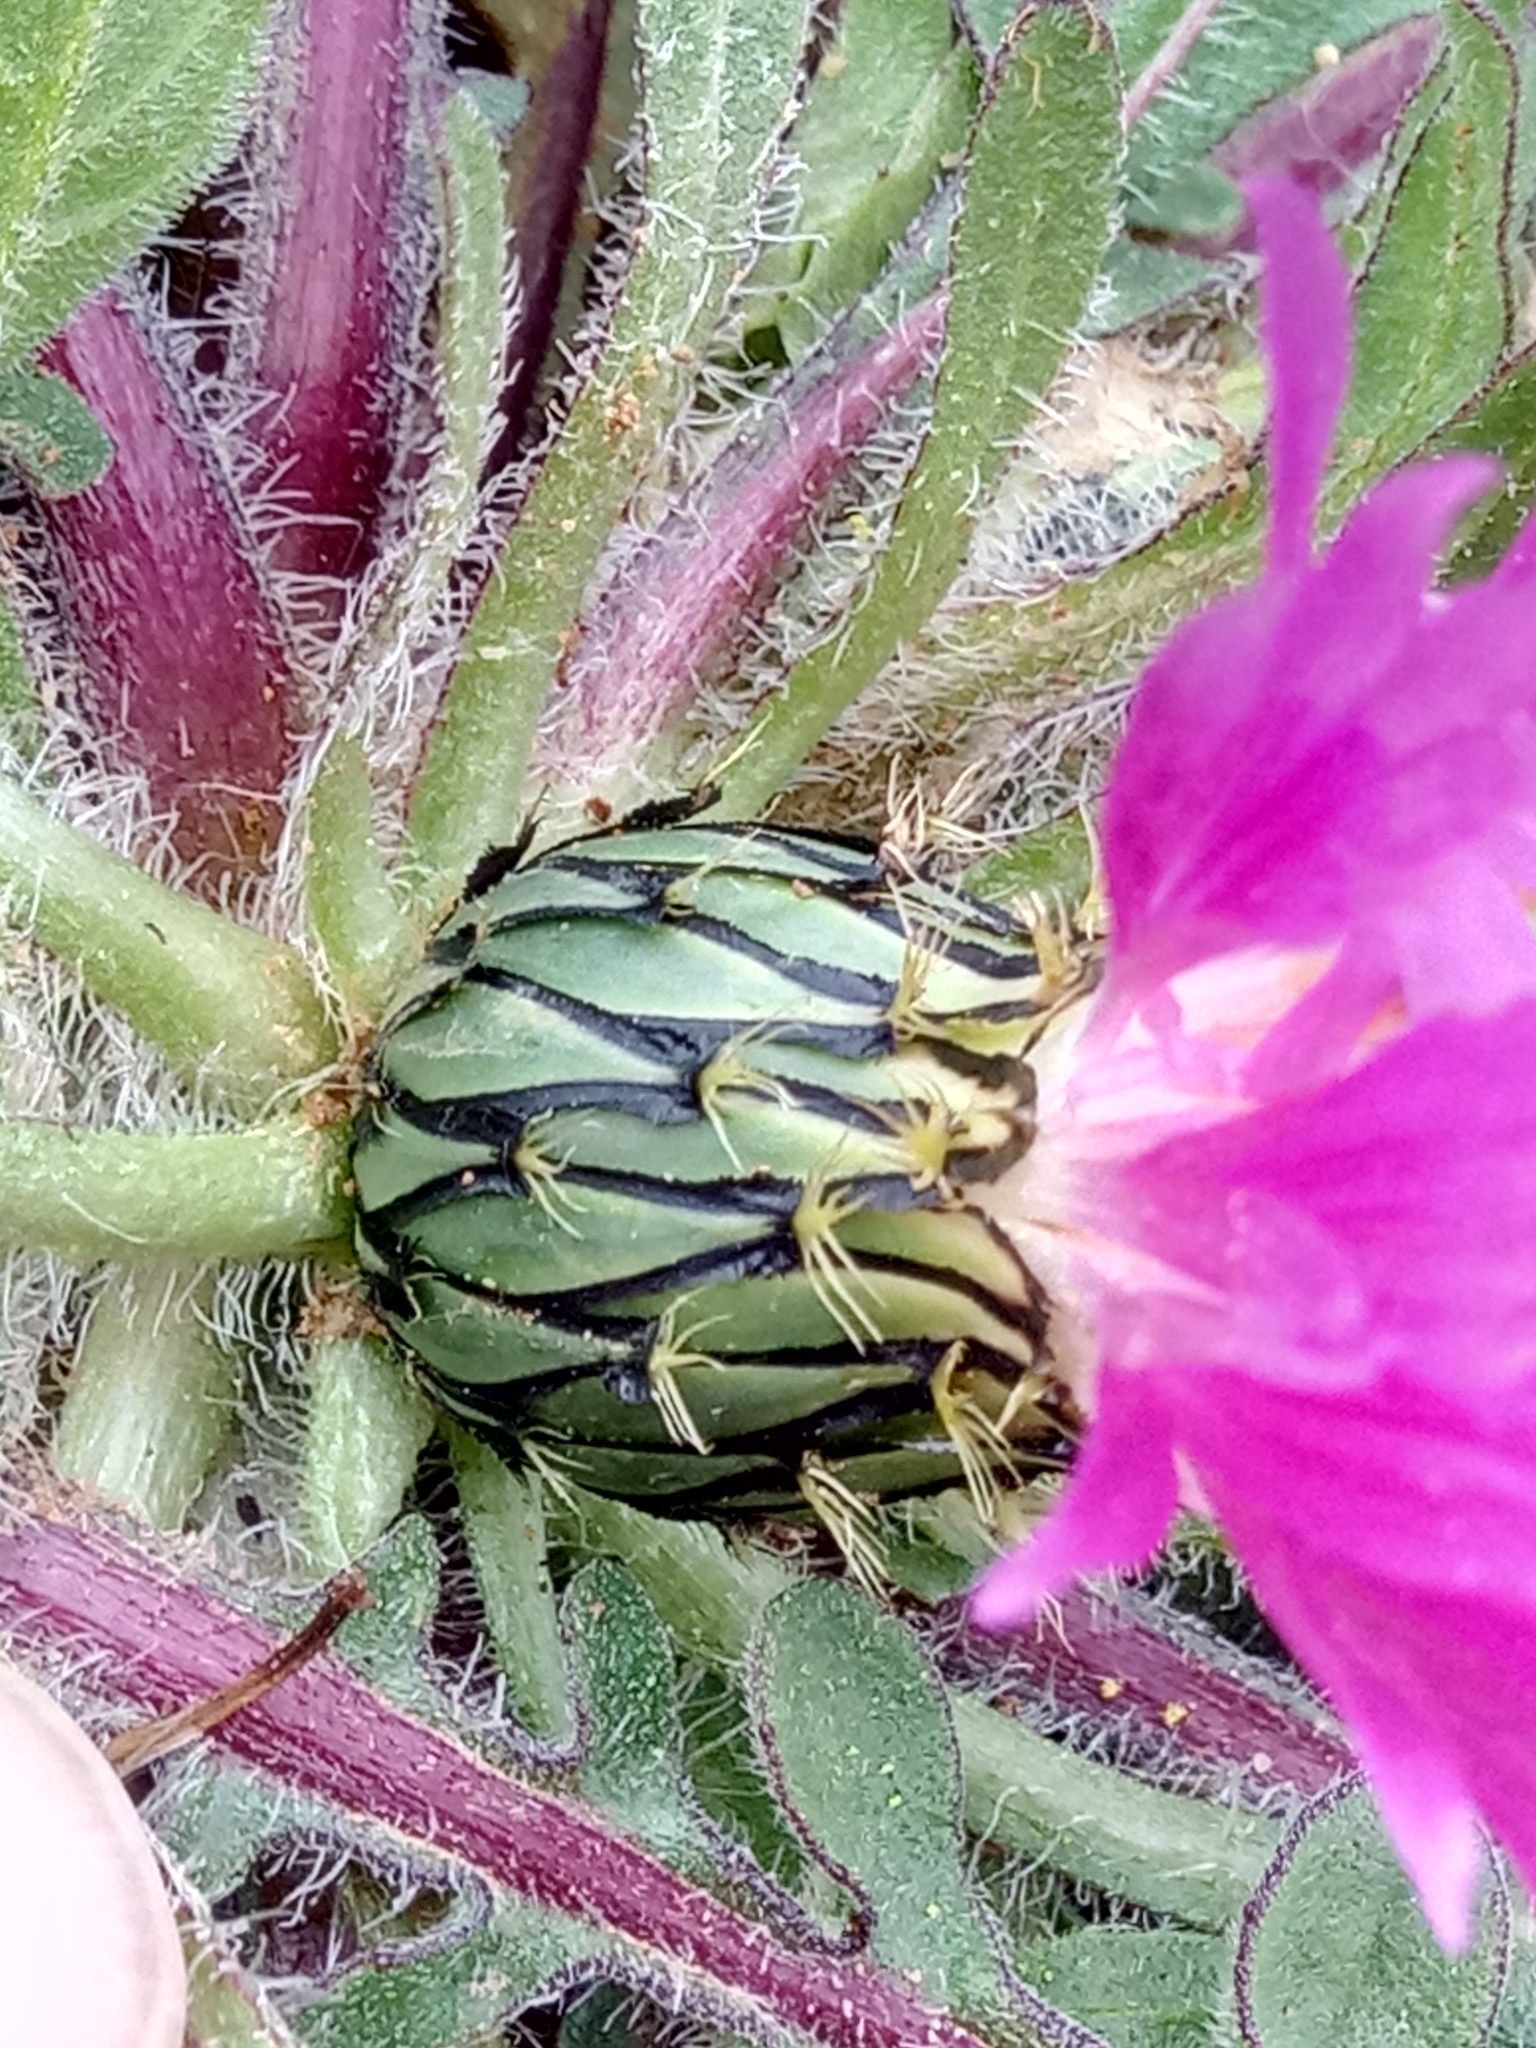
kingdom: Plantae
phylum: Tracheophyta
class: Magnoliopsida
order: Asterales
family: Asteraceae
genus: Centaurea
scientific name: Centaurea pullata
